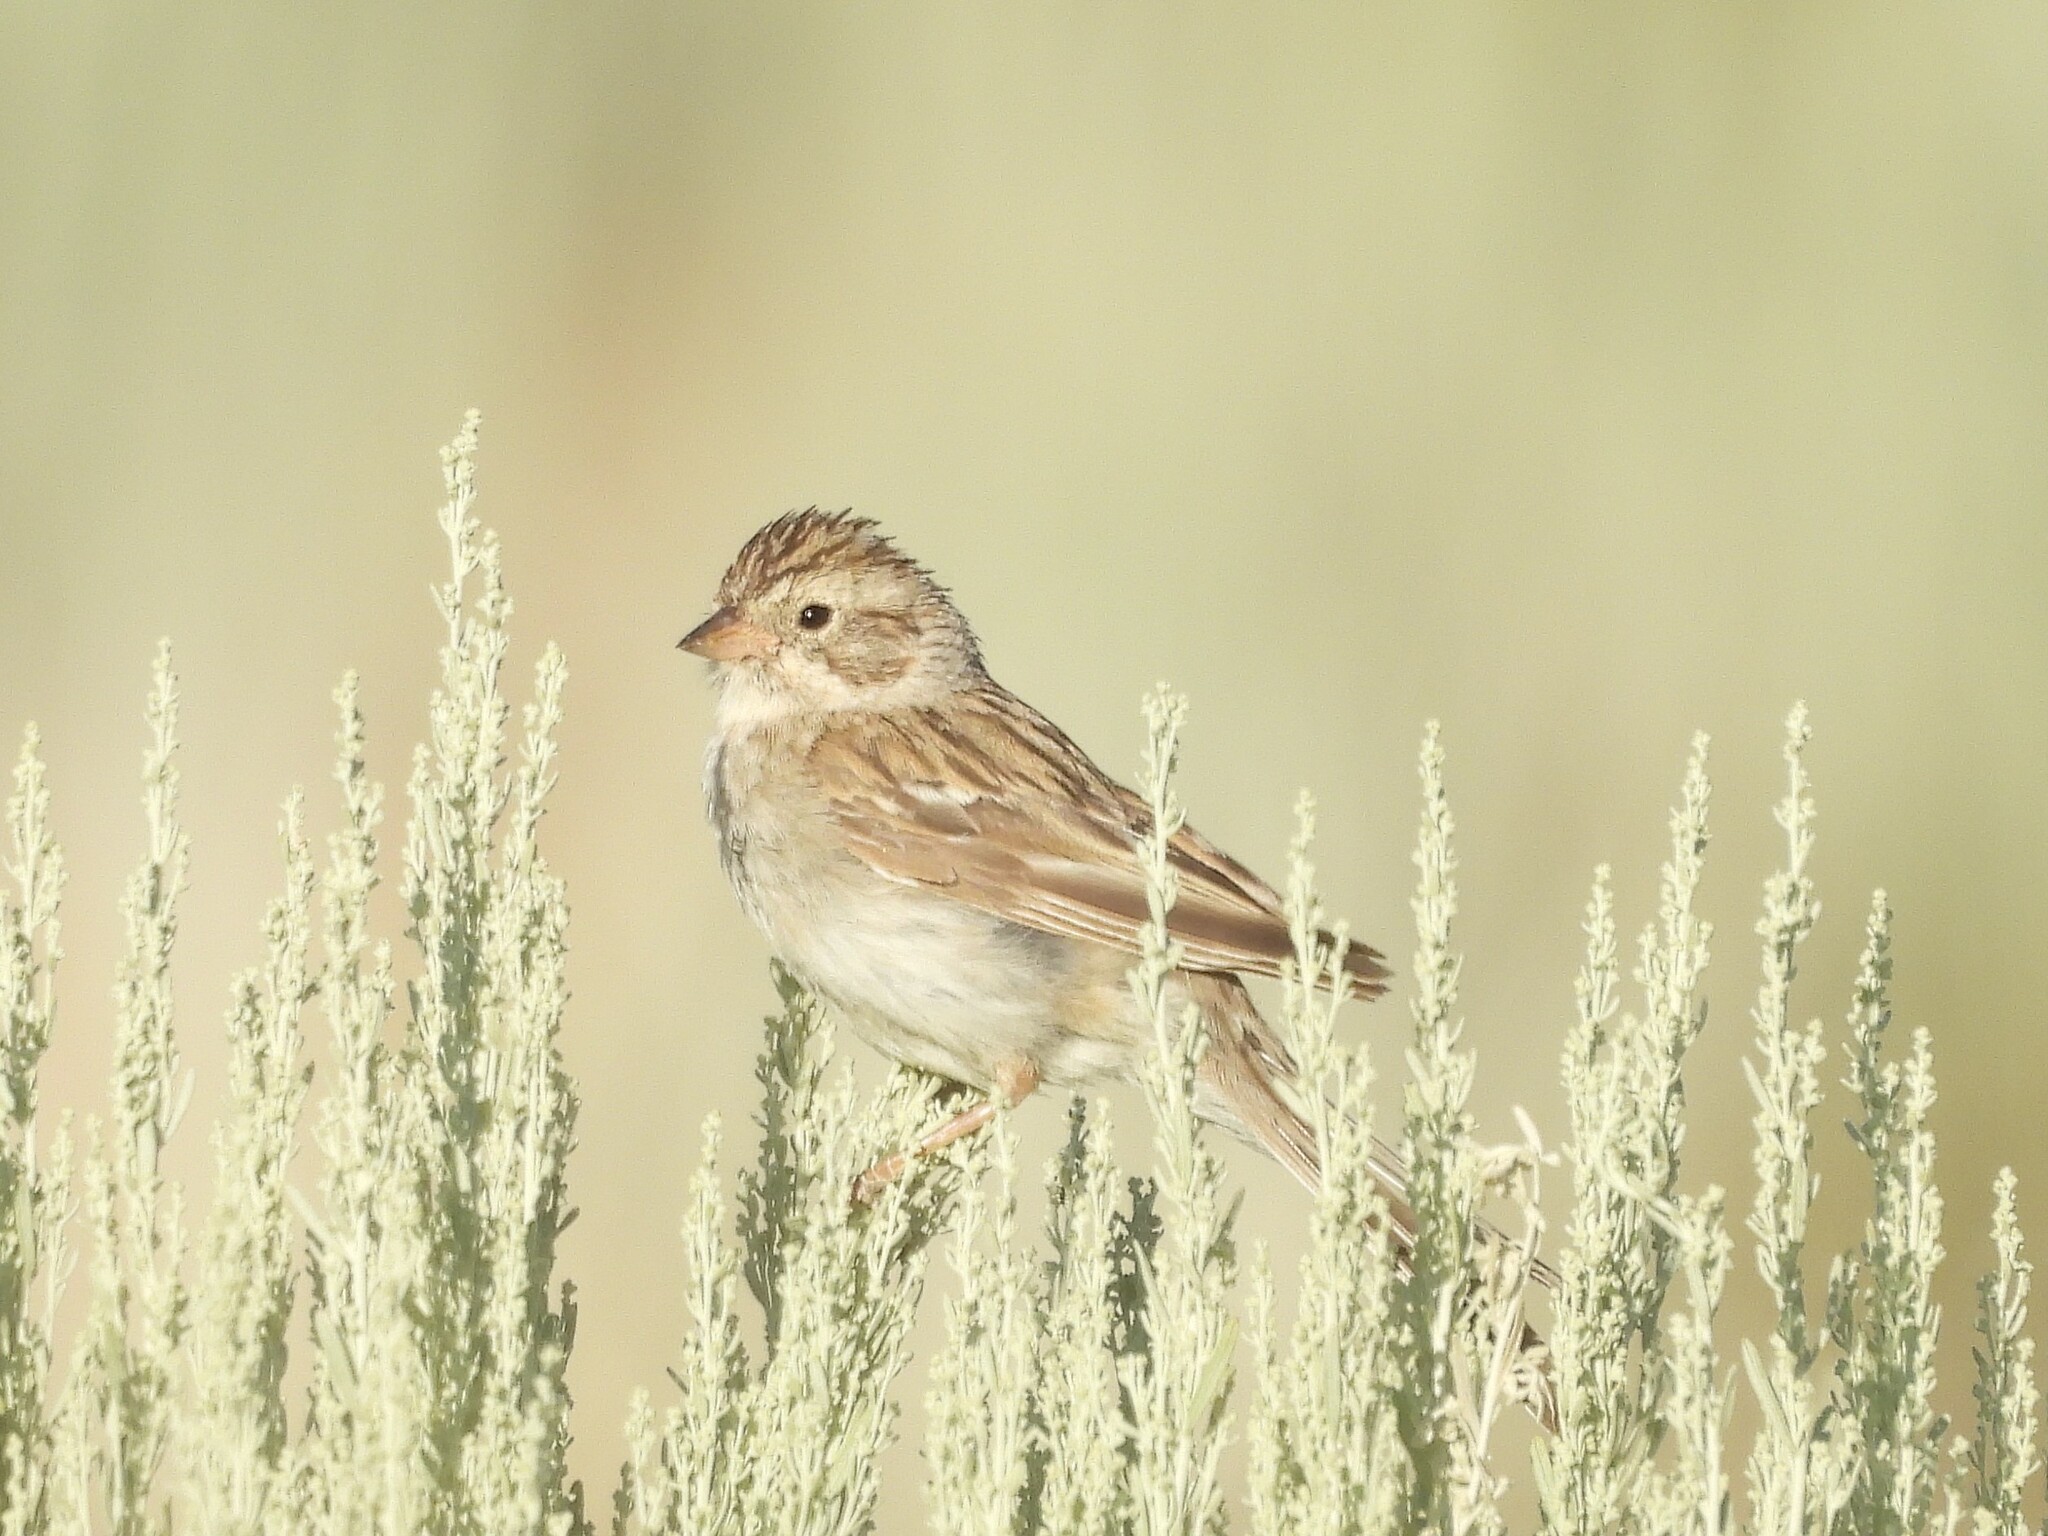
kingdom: Animalia
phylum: Chordata
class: Aves
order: Passeriformes
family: Passerellidae
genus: Spizella
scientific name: Spizella breweri
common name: Brewer's sparrow
